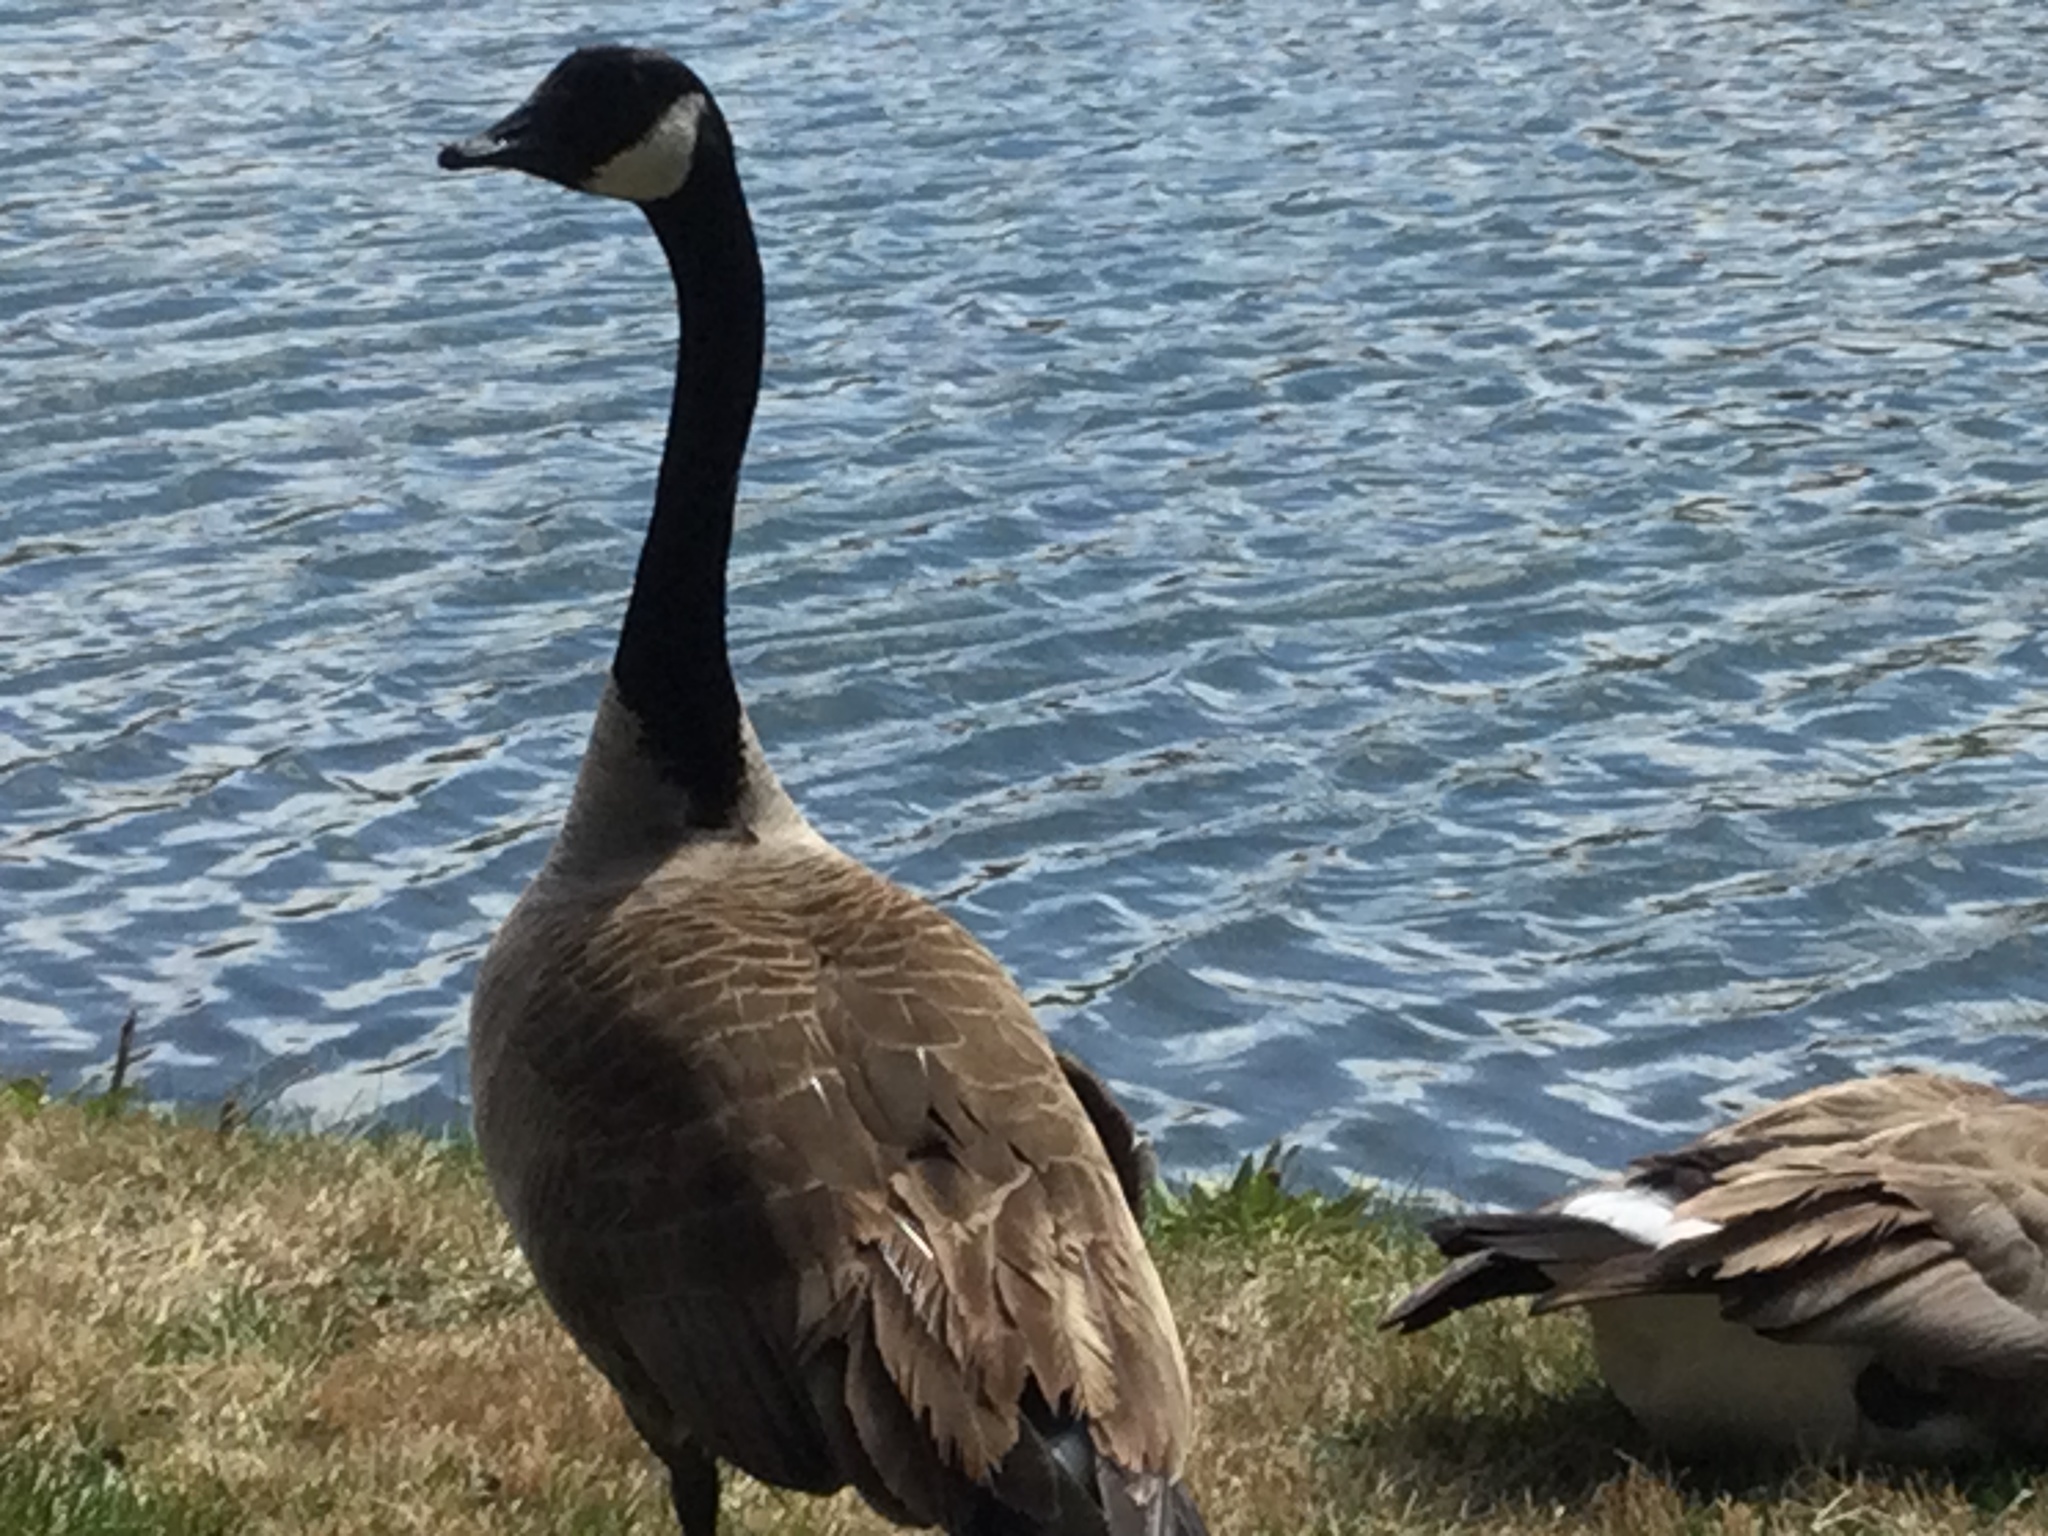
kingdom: Animalia
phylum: Chordata
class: Aves
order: Anseriformes
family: Anatidae
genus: Branta
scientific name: Branta canadensis
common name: Canada goose
